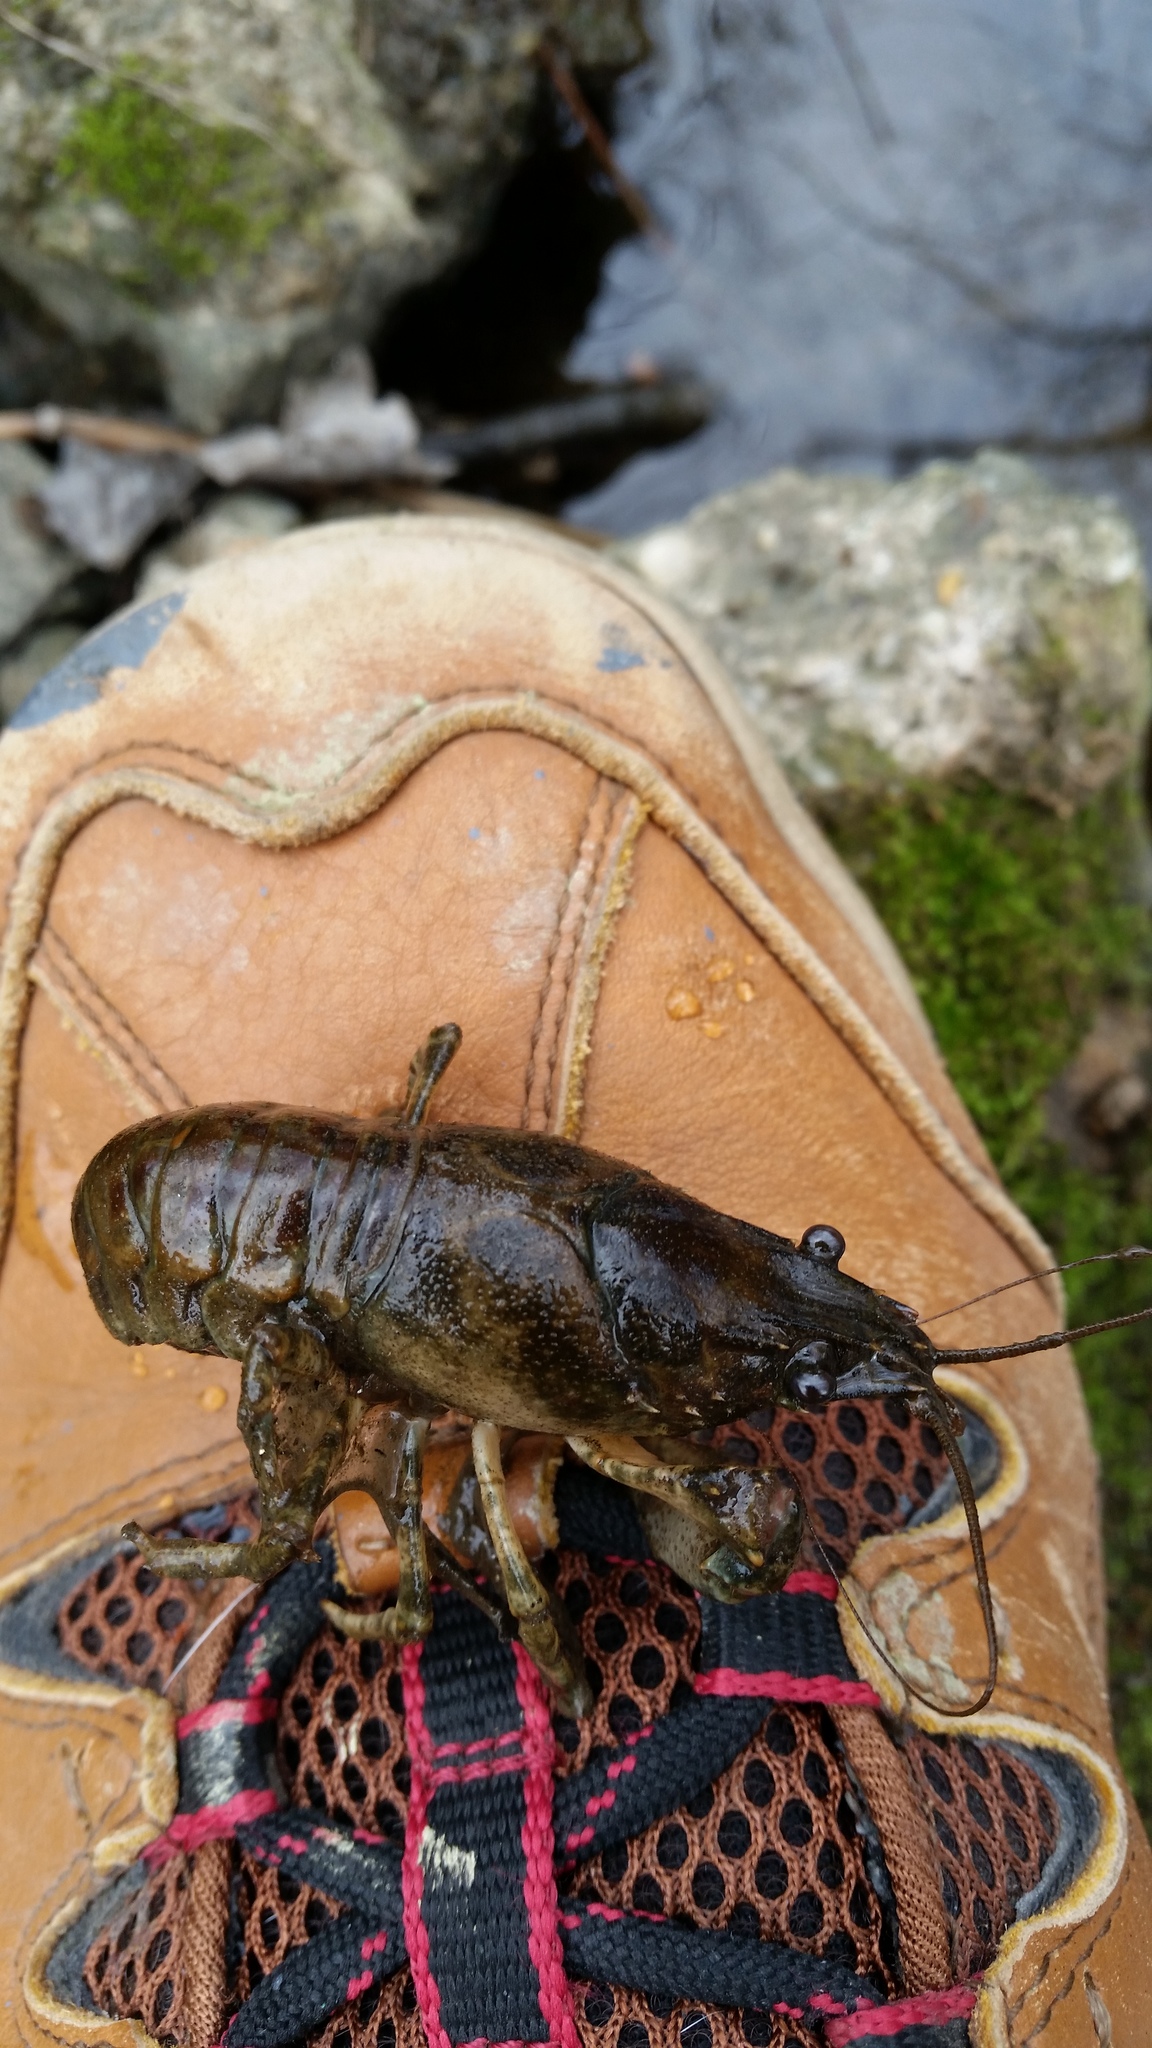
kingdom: Animalia
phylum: Arthropoda
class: Malacostraca
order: Decapoda
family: Cambaridae
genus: Faxonius
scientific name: Faxonius limosus
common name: American crayfish
